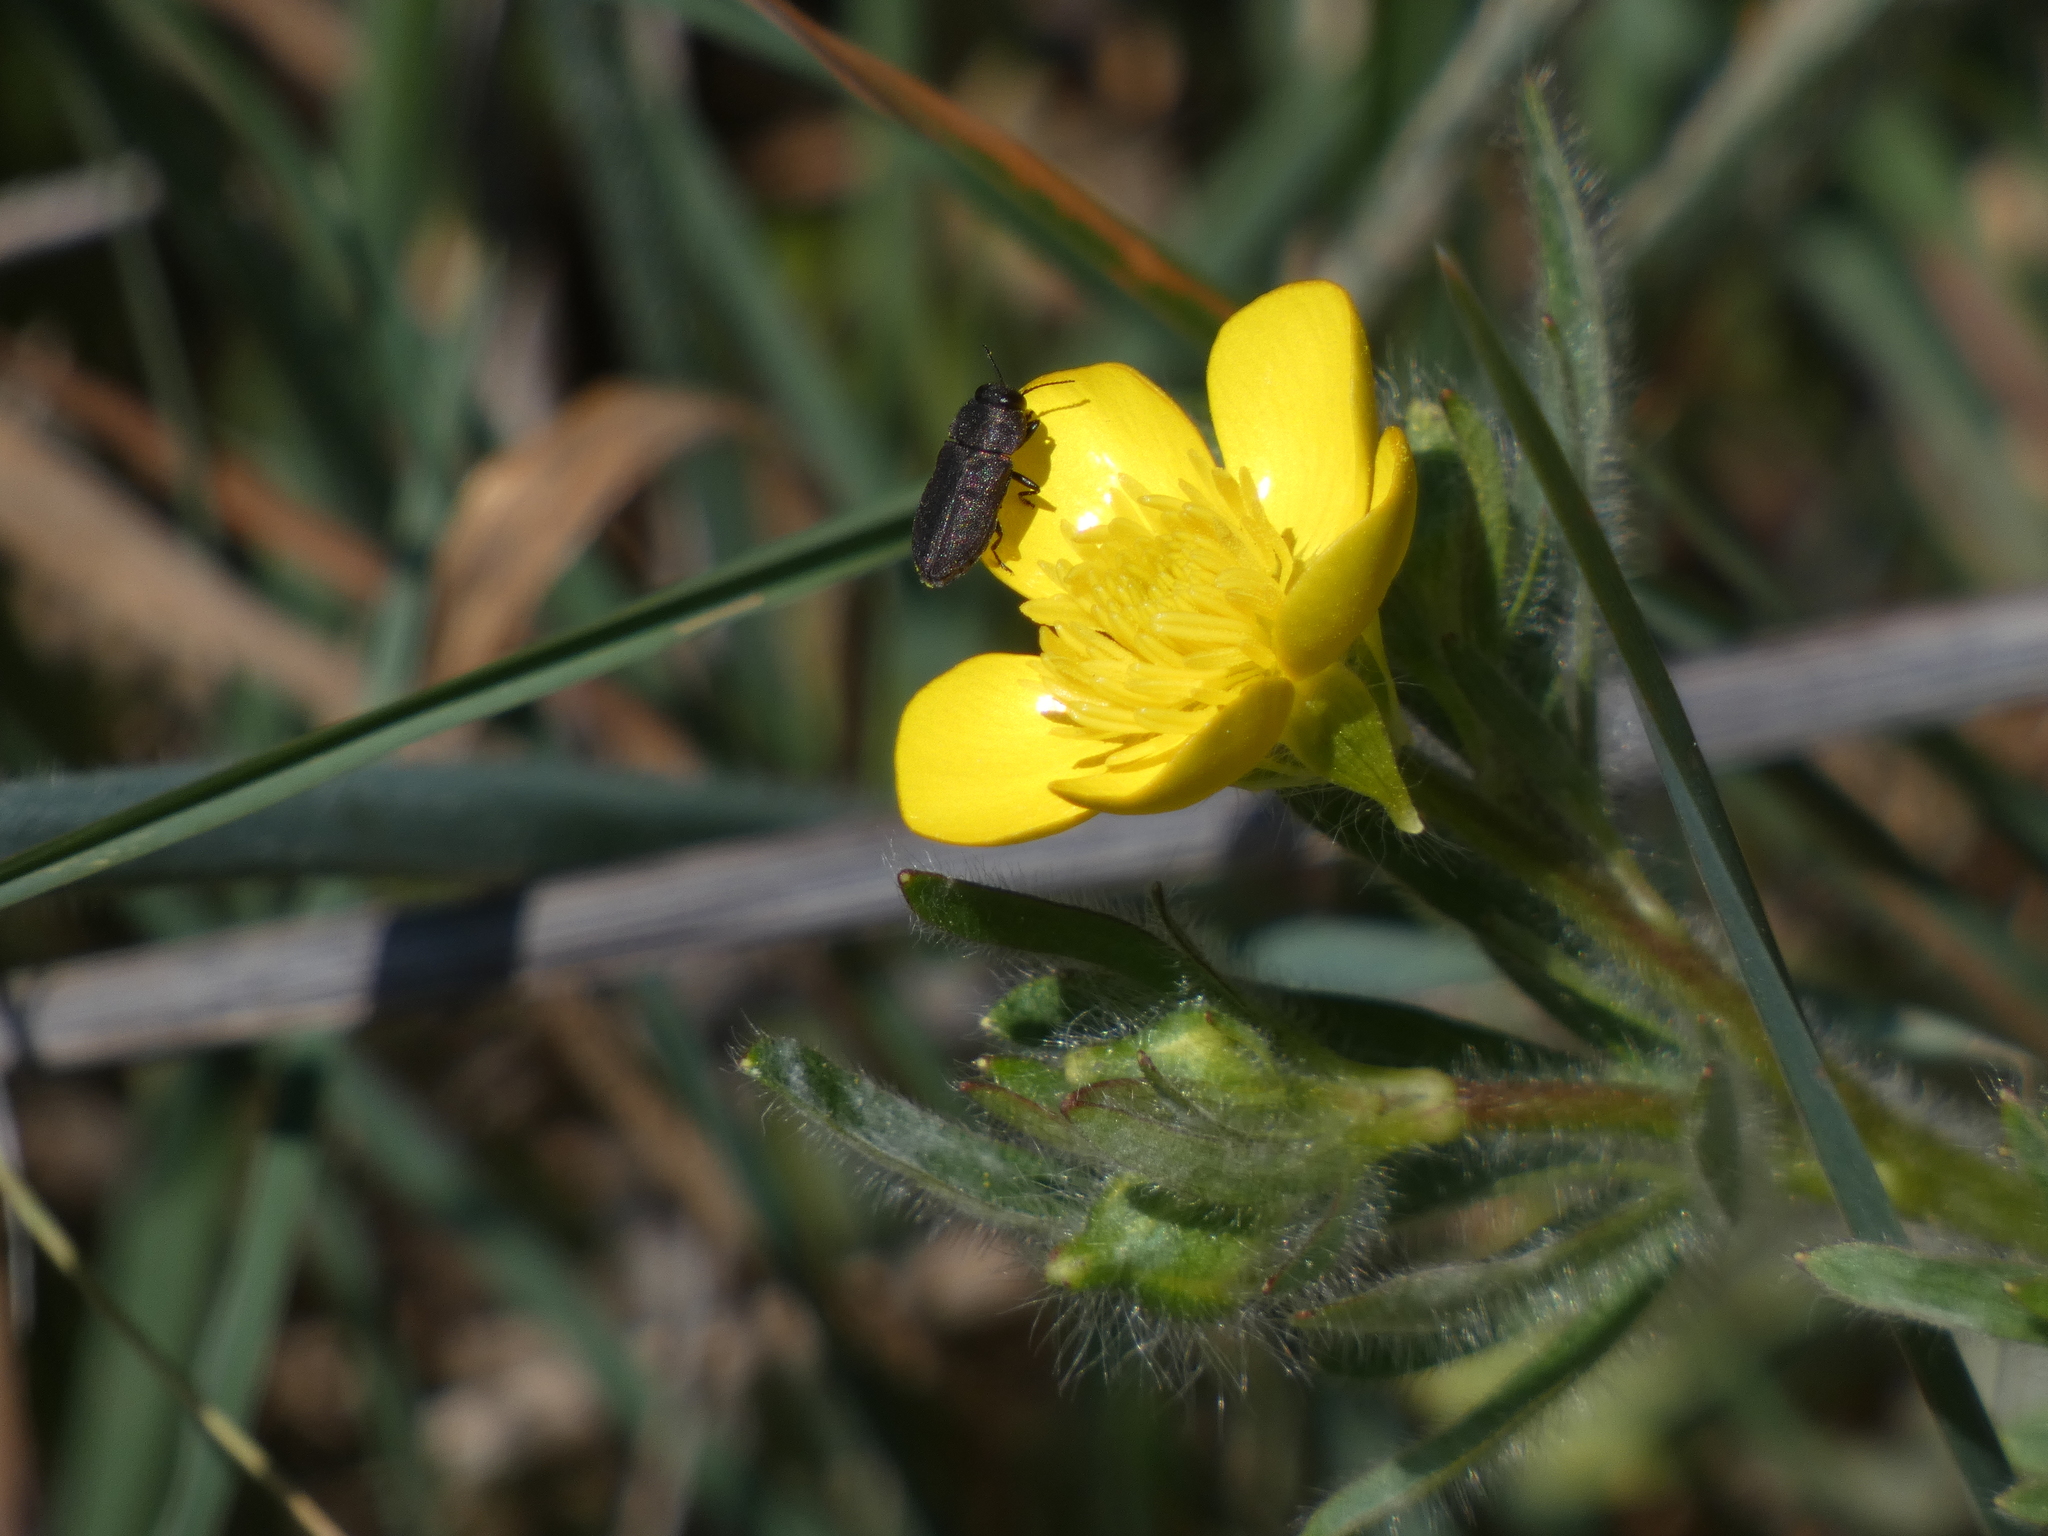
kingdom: Animalia
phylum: Arthropoda
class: Insecta
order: Coleoptera
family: Buprestidae
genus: Anthaxia
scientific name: Anthaxia sepulchralis
